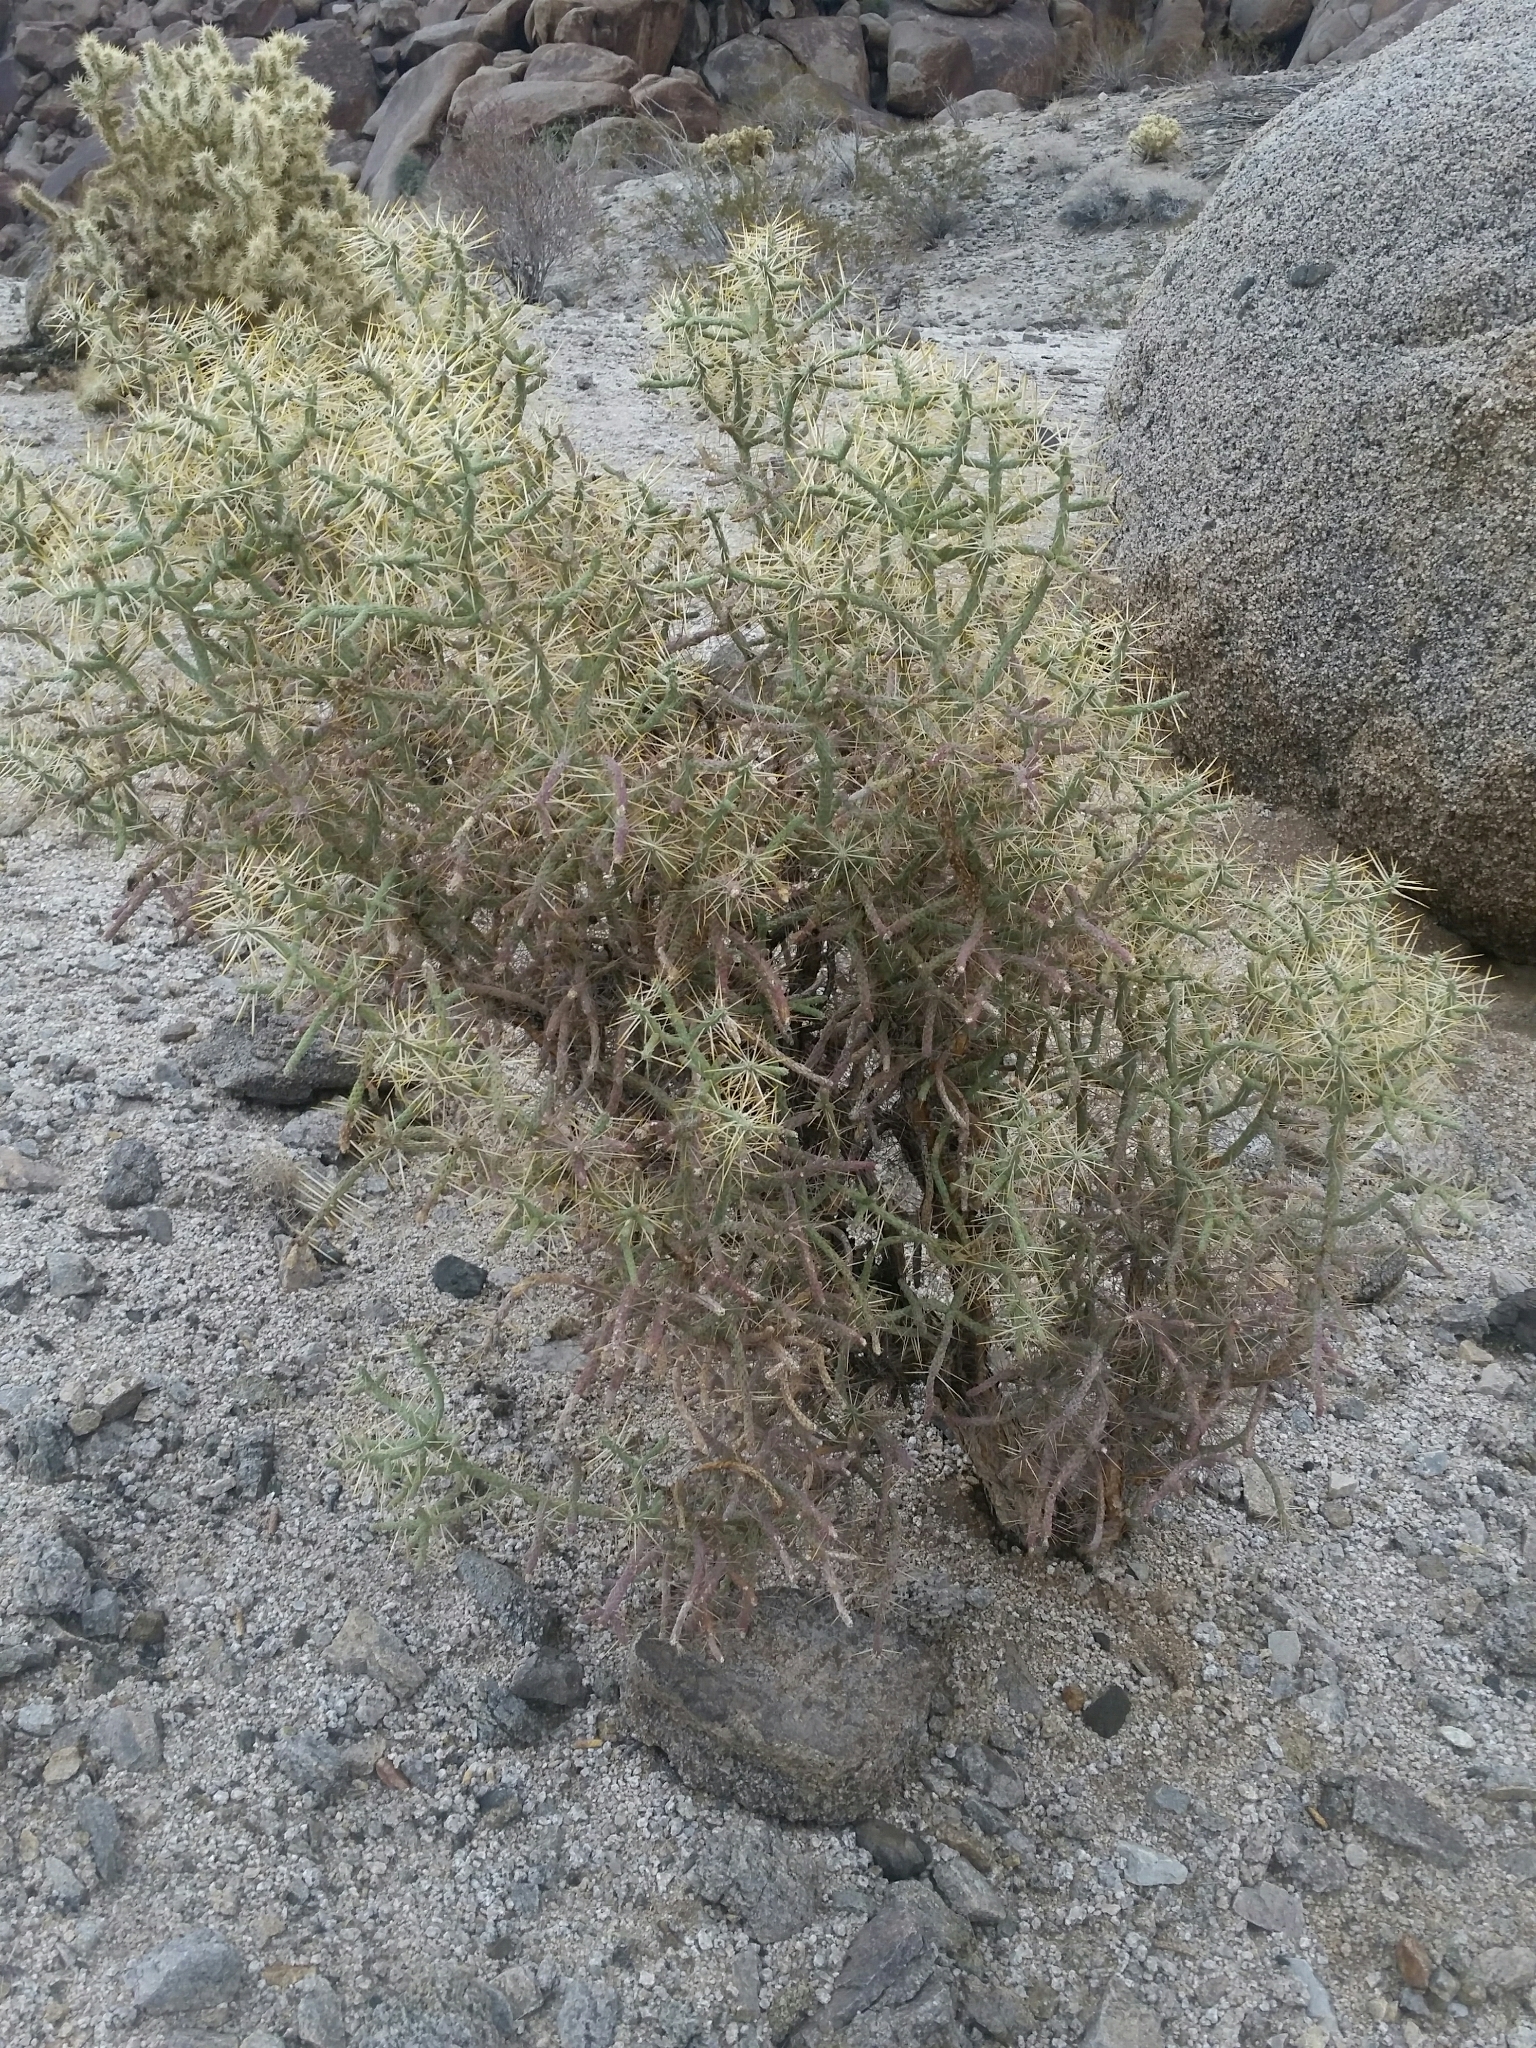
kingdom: Plantae
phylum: Tracheophyta
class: Magnoliopsida
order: Caryophyllales
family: Cactaceae
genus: Cylindropuntia
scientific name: Cylindropuntia ramosissima
